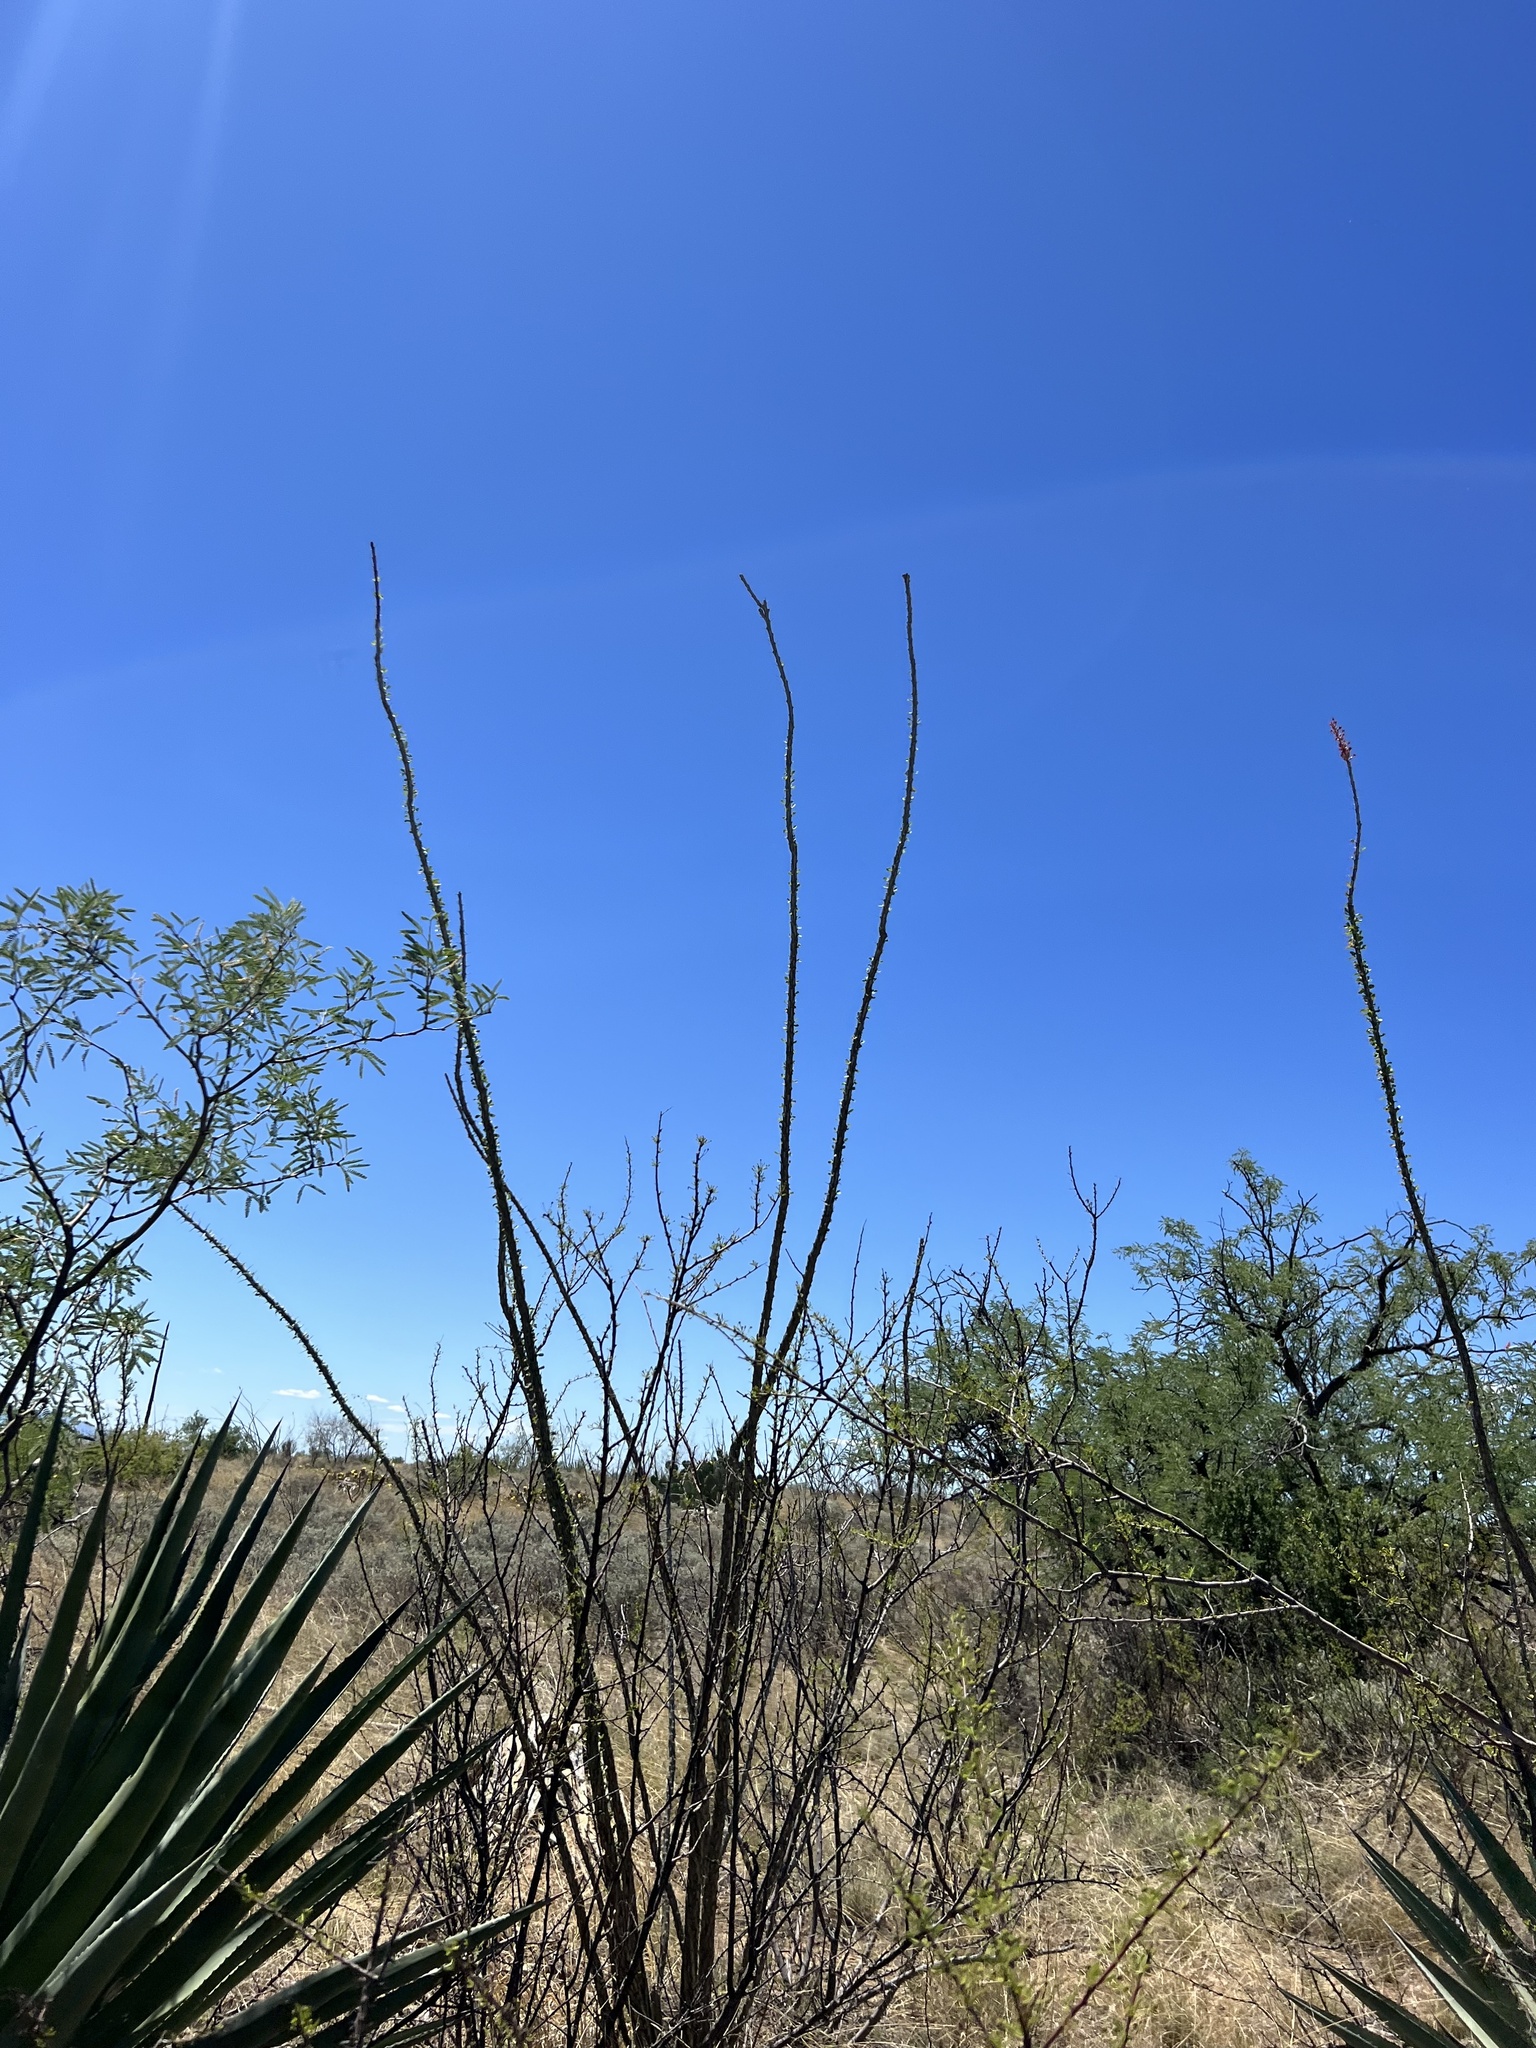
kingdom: Plantae
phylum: Tracheophyta
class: Magnoliopsida
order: Ericales
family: Fouquieriaceae
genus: Fouquieria
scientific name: Fouquieria splendens
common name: Vine-cactus
